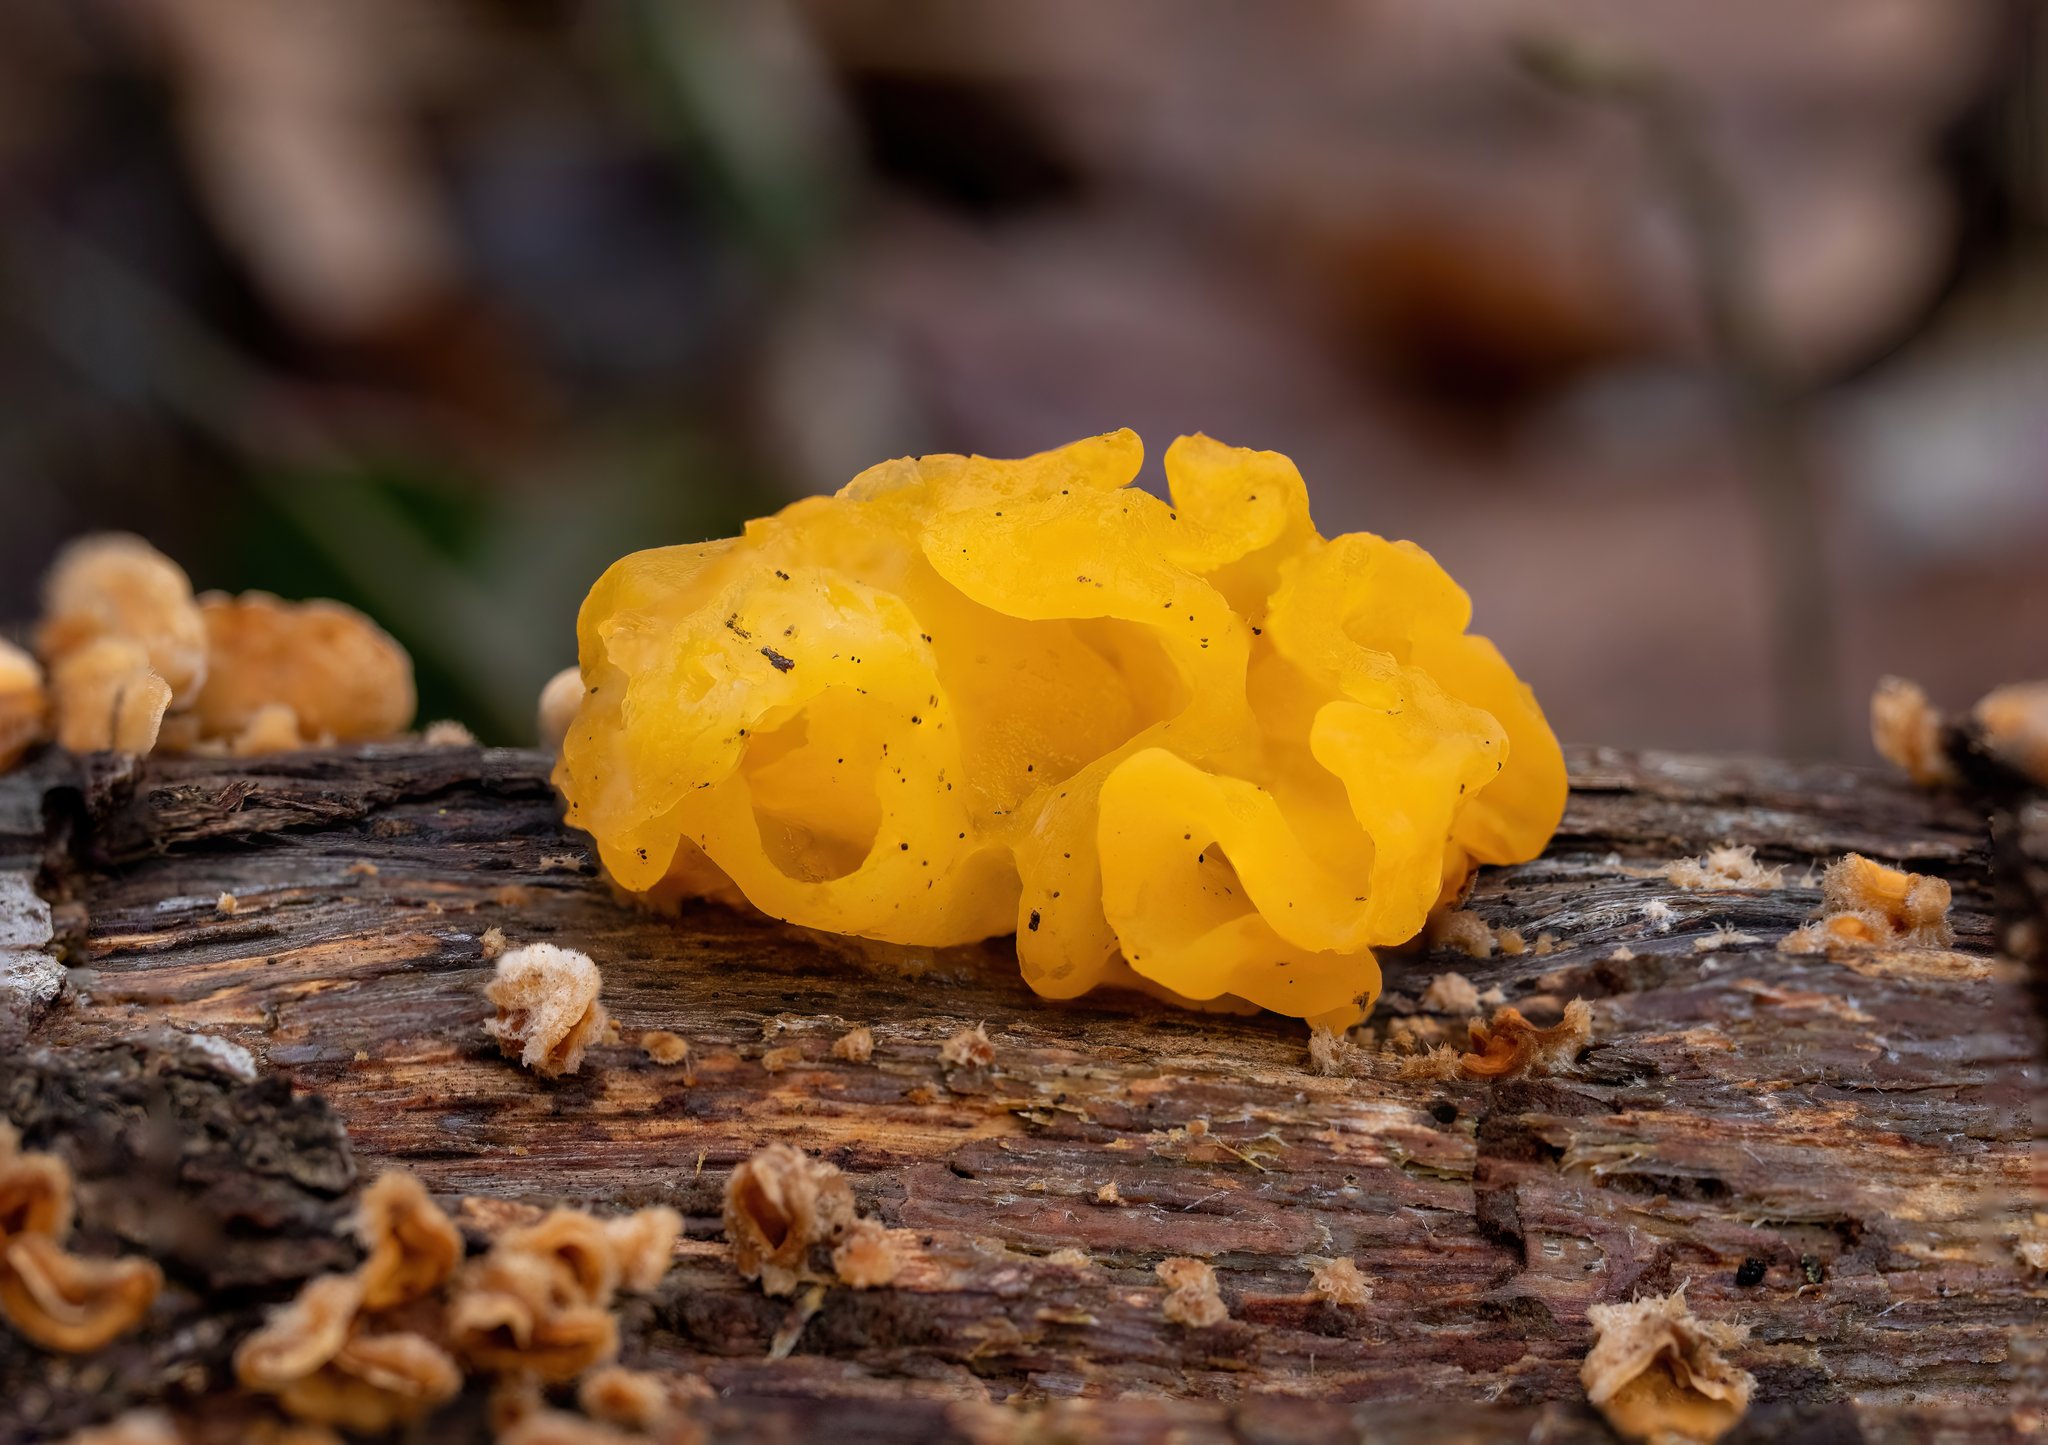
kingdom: Fungi
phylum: Basidiomycota
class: Tremellomycetes
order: Tremellales
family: Naemateliaceae
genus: Naematelia
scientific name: Naematelia aurantia
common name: Golden ear
